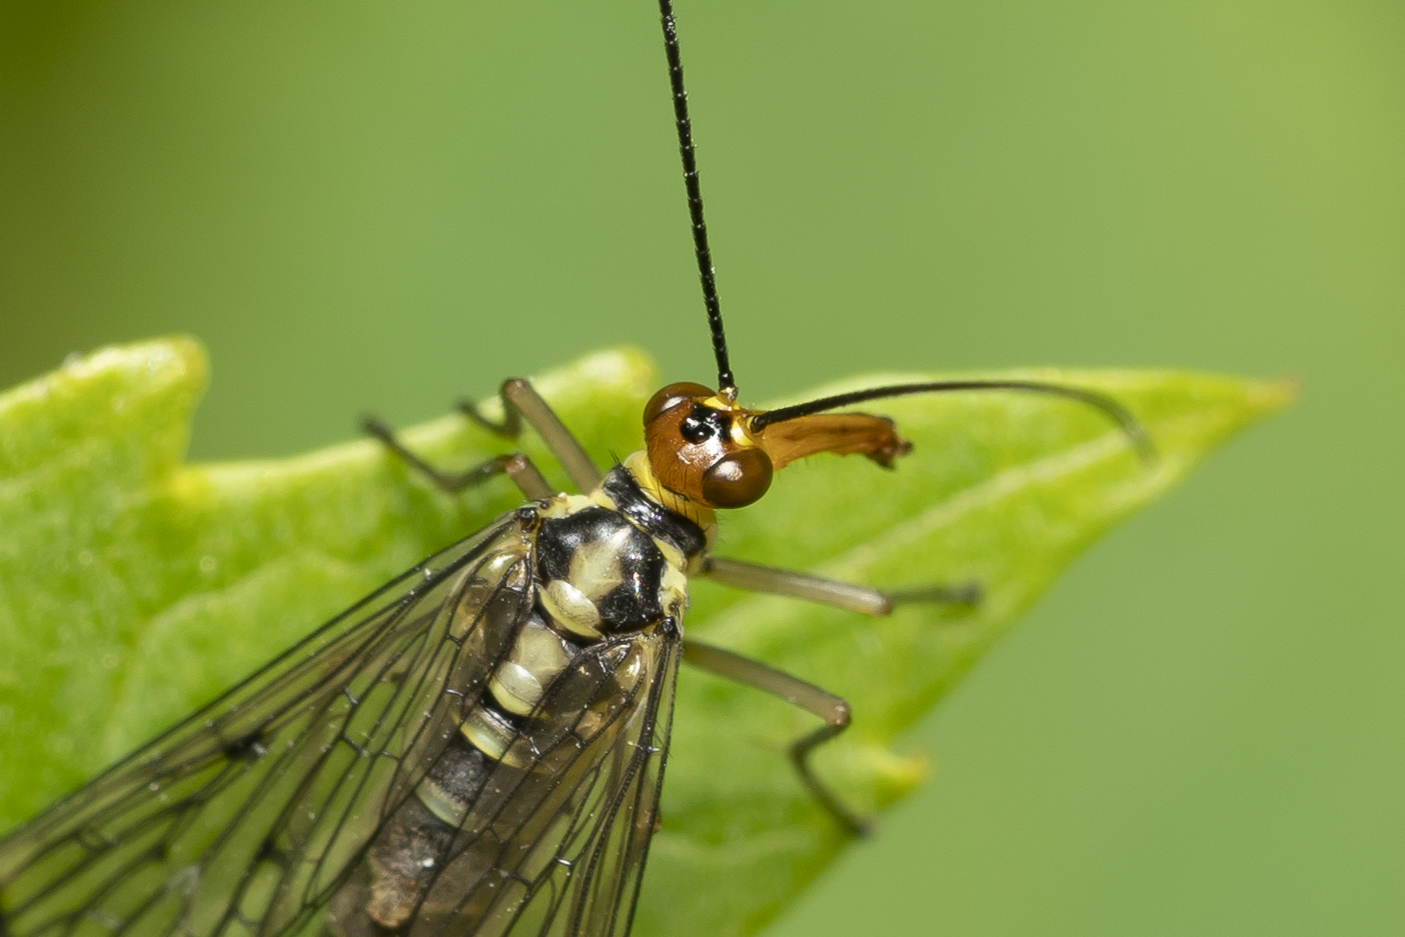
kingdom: Animalia
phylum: Arthropoda
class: Insecta
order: Mecoptera
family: Panorpidae
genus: Panorpa
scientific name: Panorpa lacedaemonia
